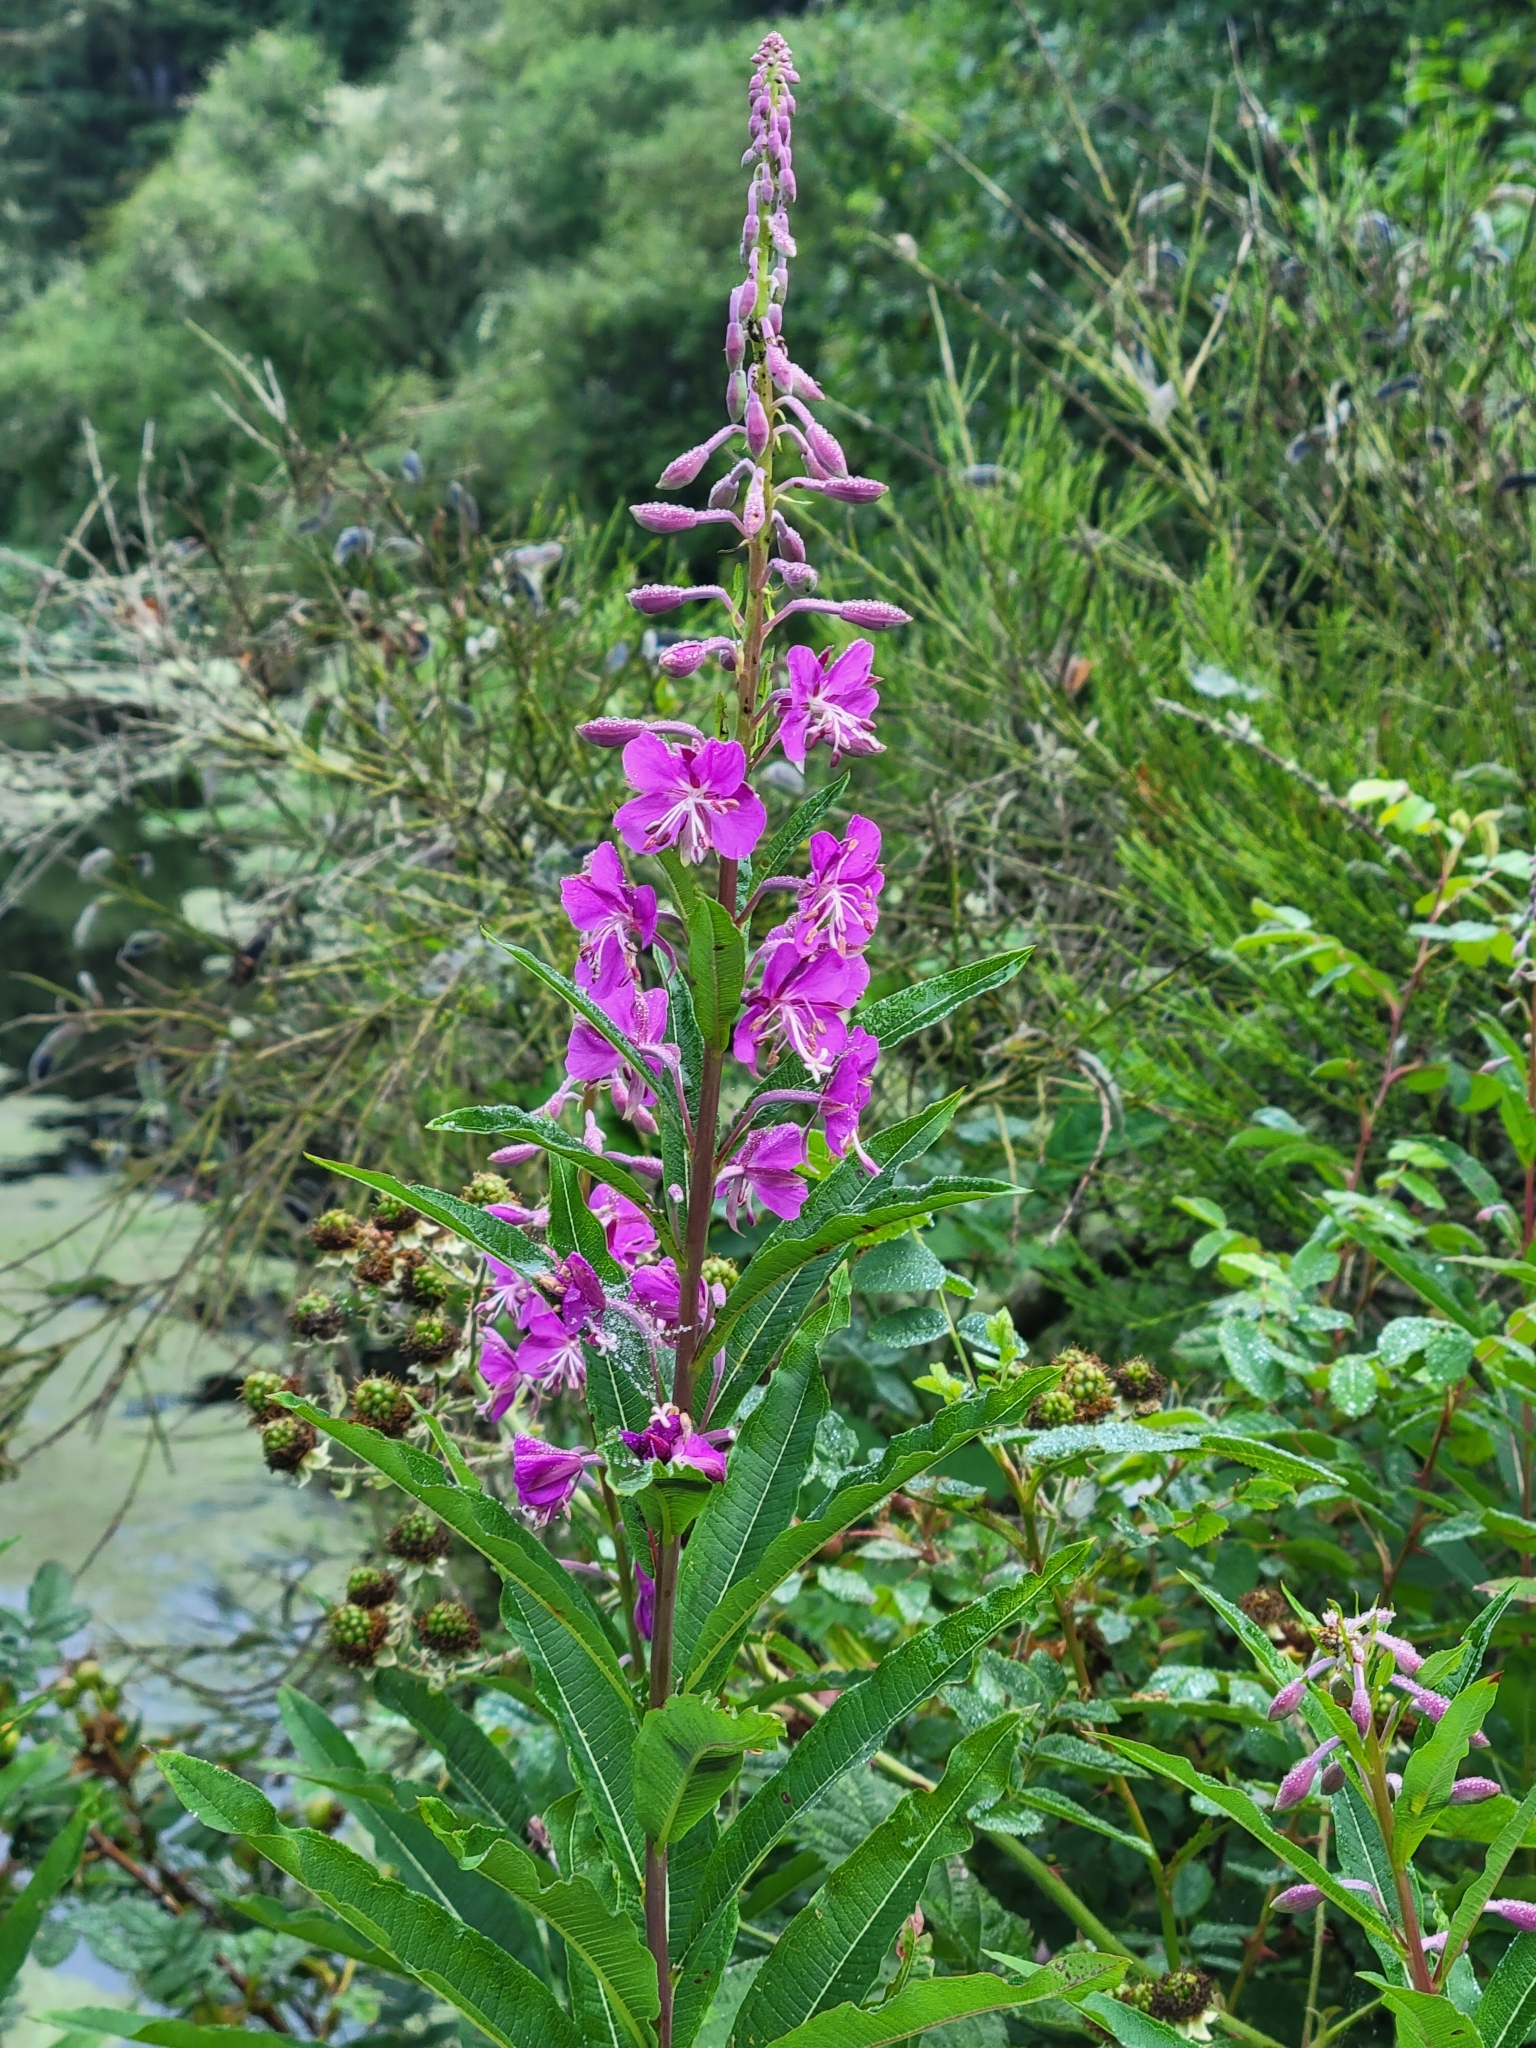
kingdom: Plantae
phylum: Tracheophyta
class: Magnoliopsida
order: Myrtales
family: Onagraceae
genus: Chamaenerion
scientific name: Chamaenerion angustifolium
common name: Fireweed
